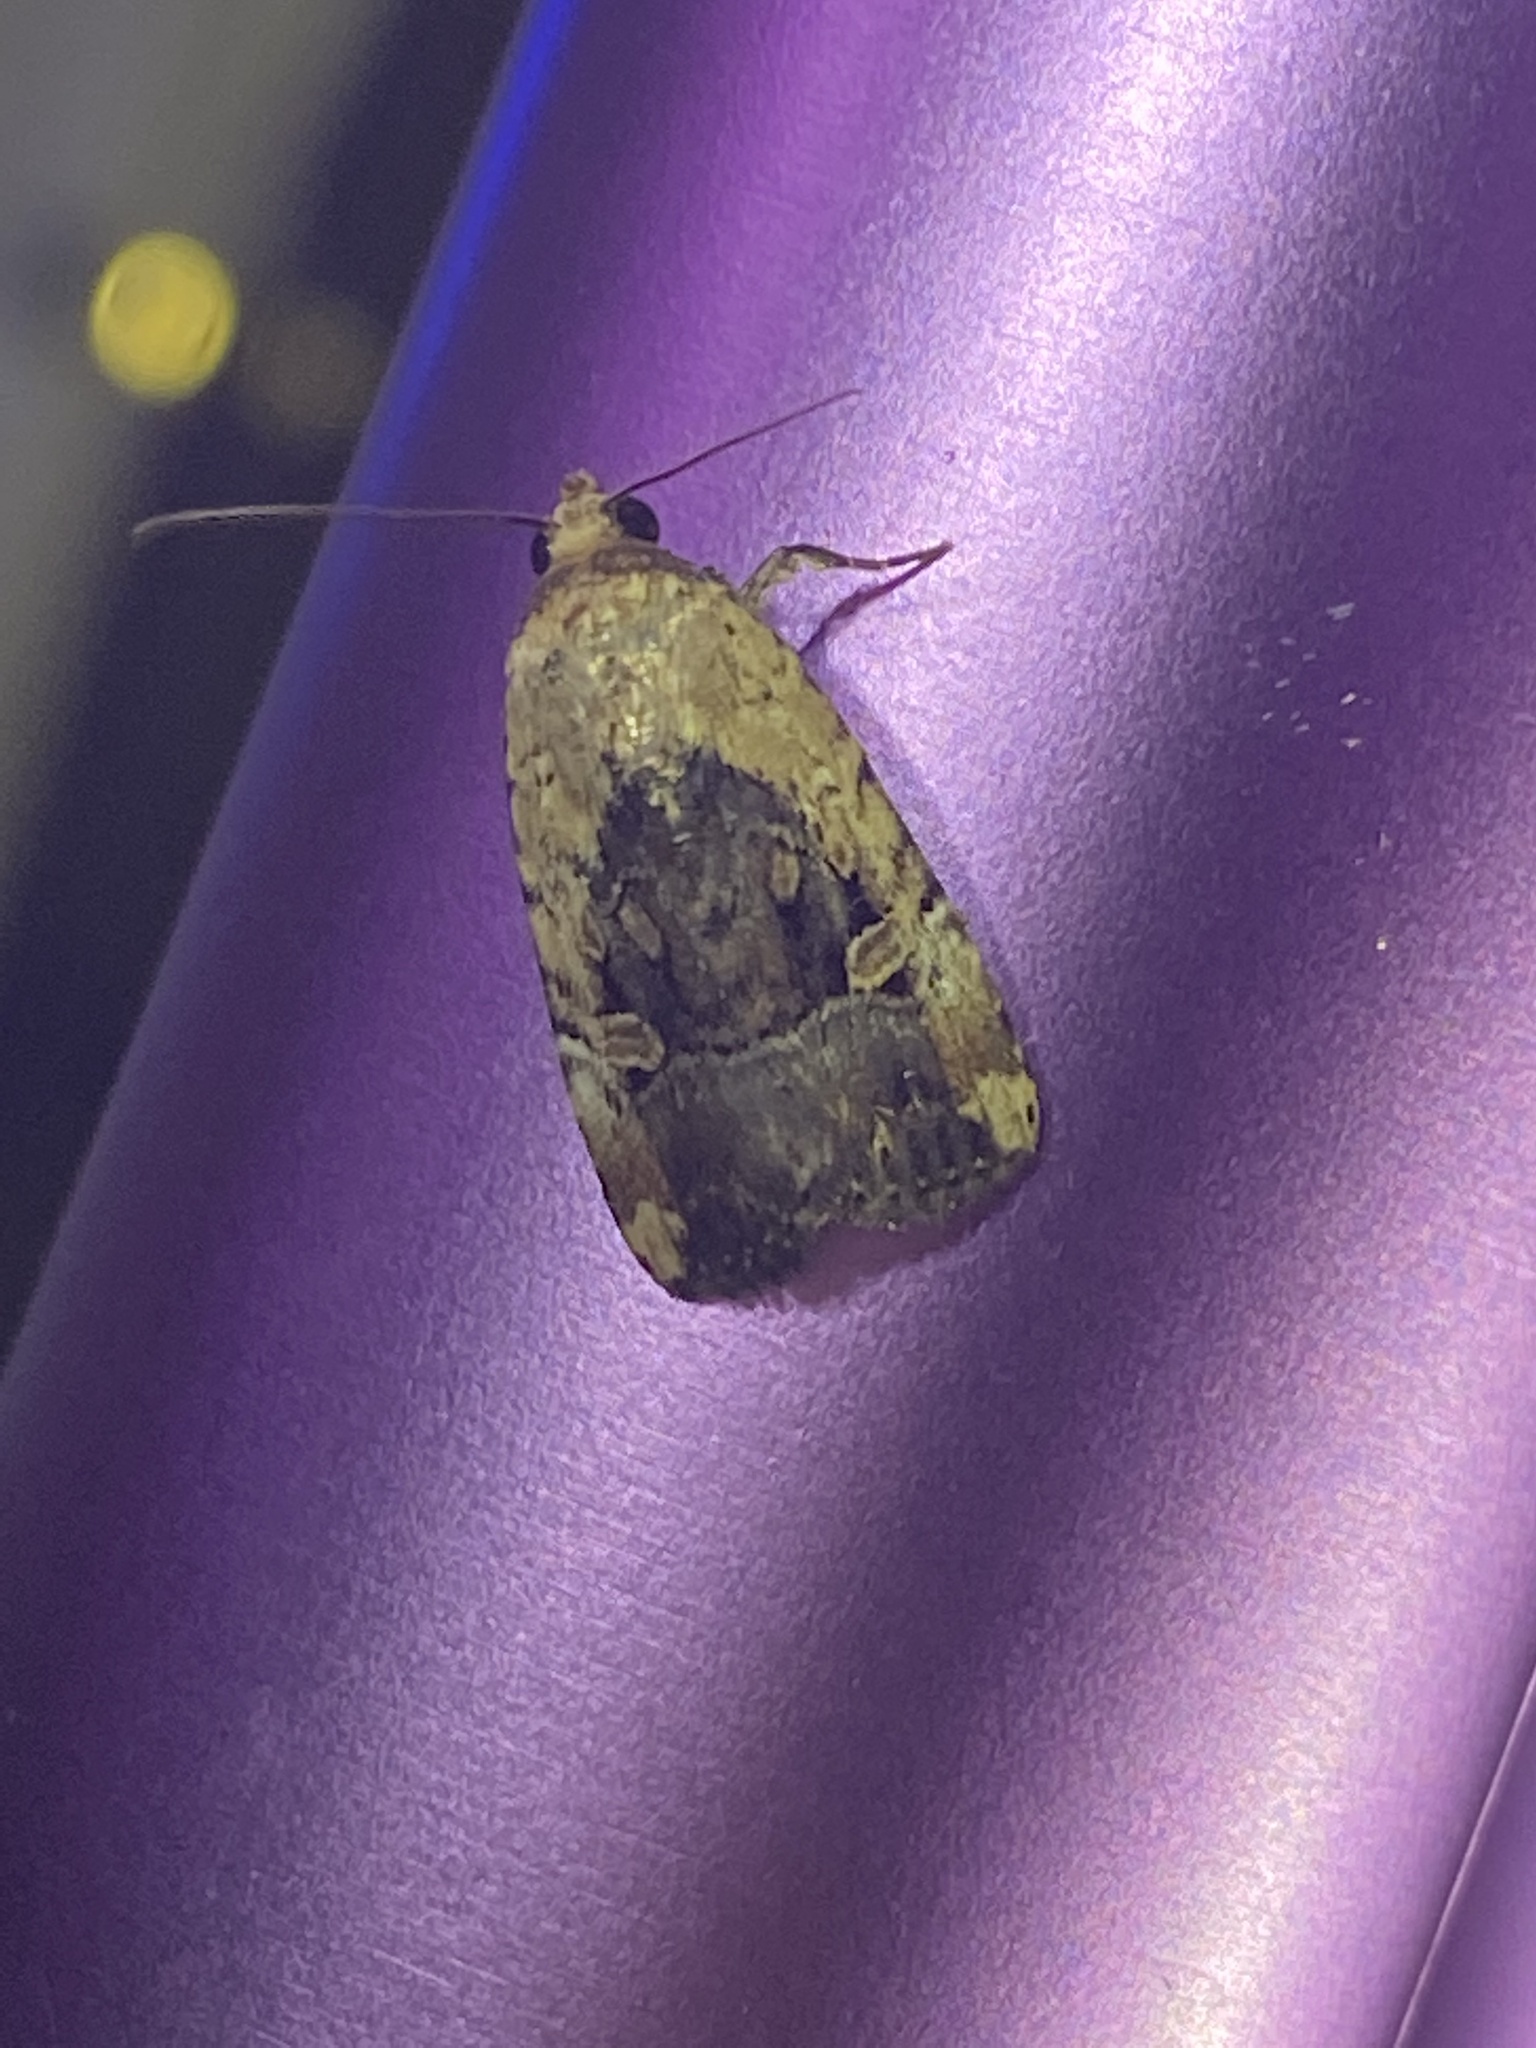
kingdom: Animalia
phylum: Arthropoda
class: Insecta
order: Lepidoptera
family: Noctuidae
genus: Elaphria
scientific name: Elaphria chalcedonia
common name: Chalcedony midget
